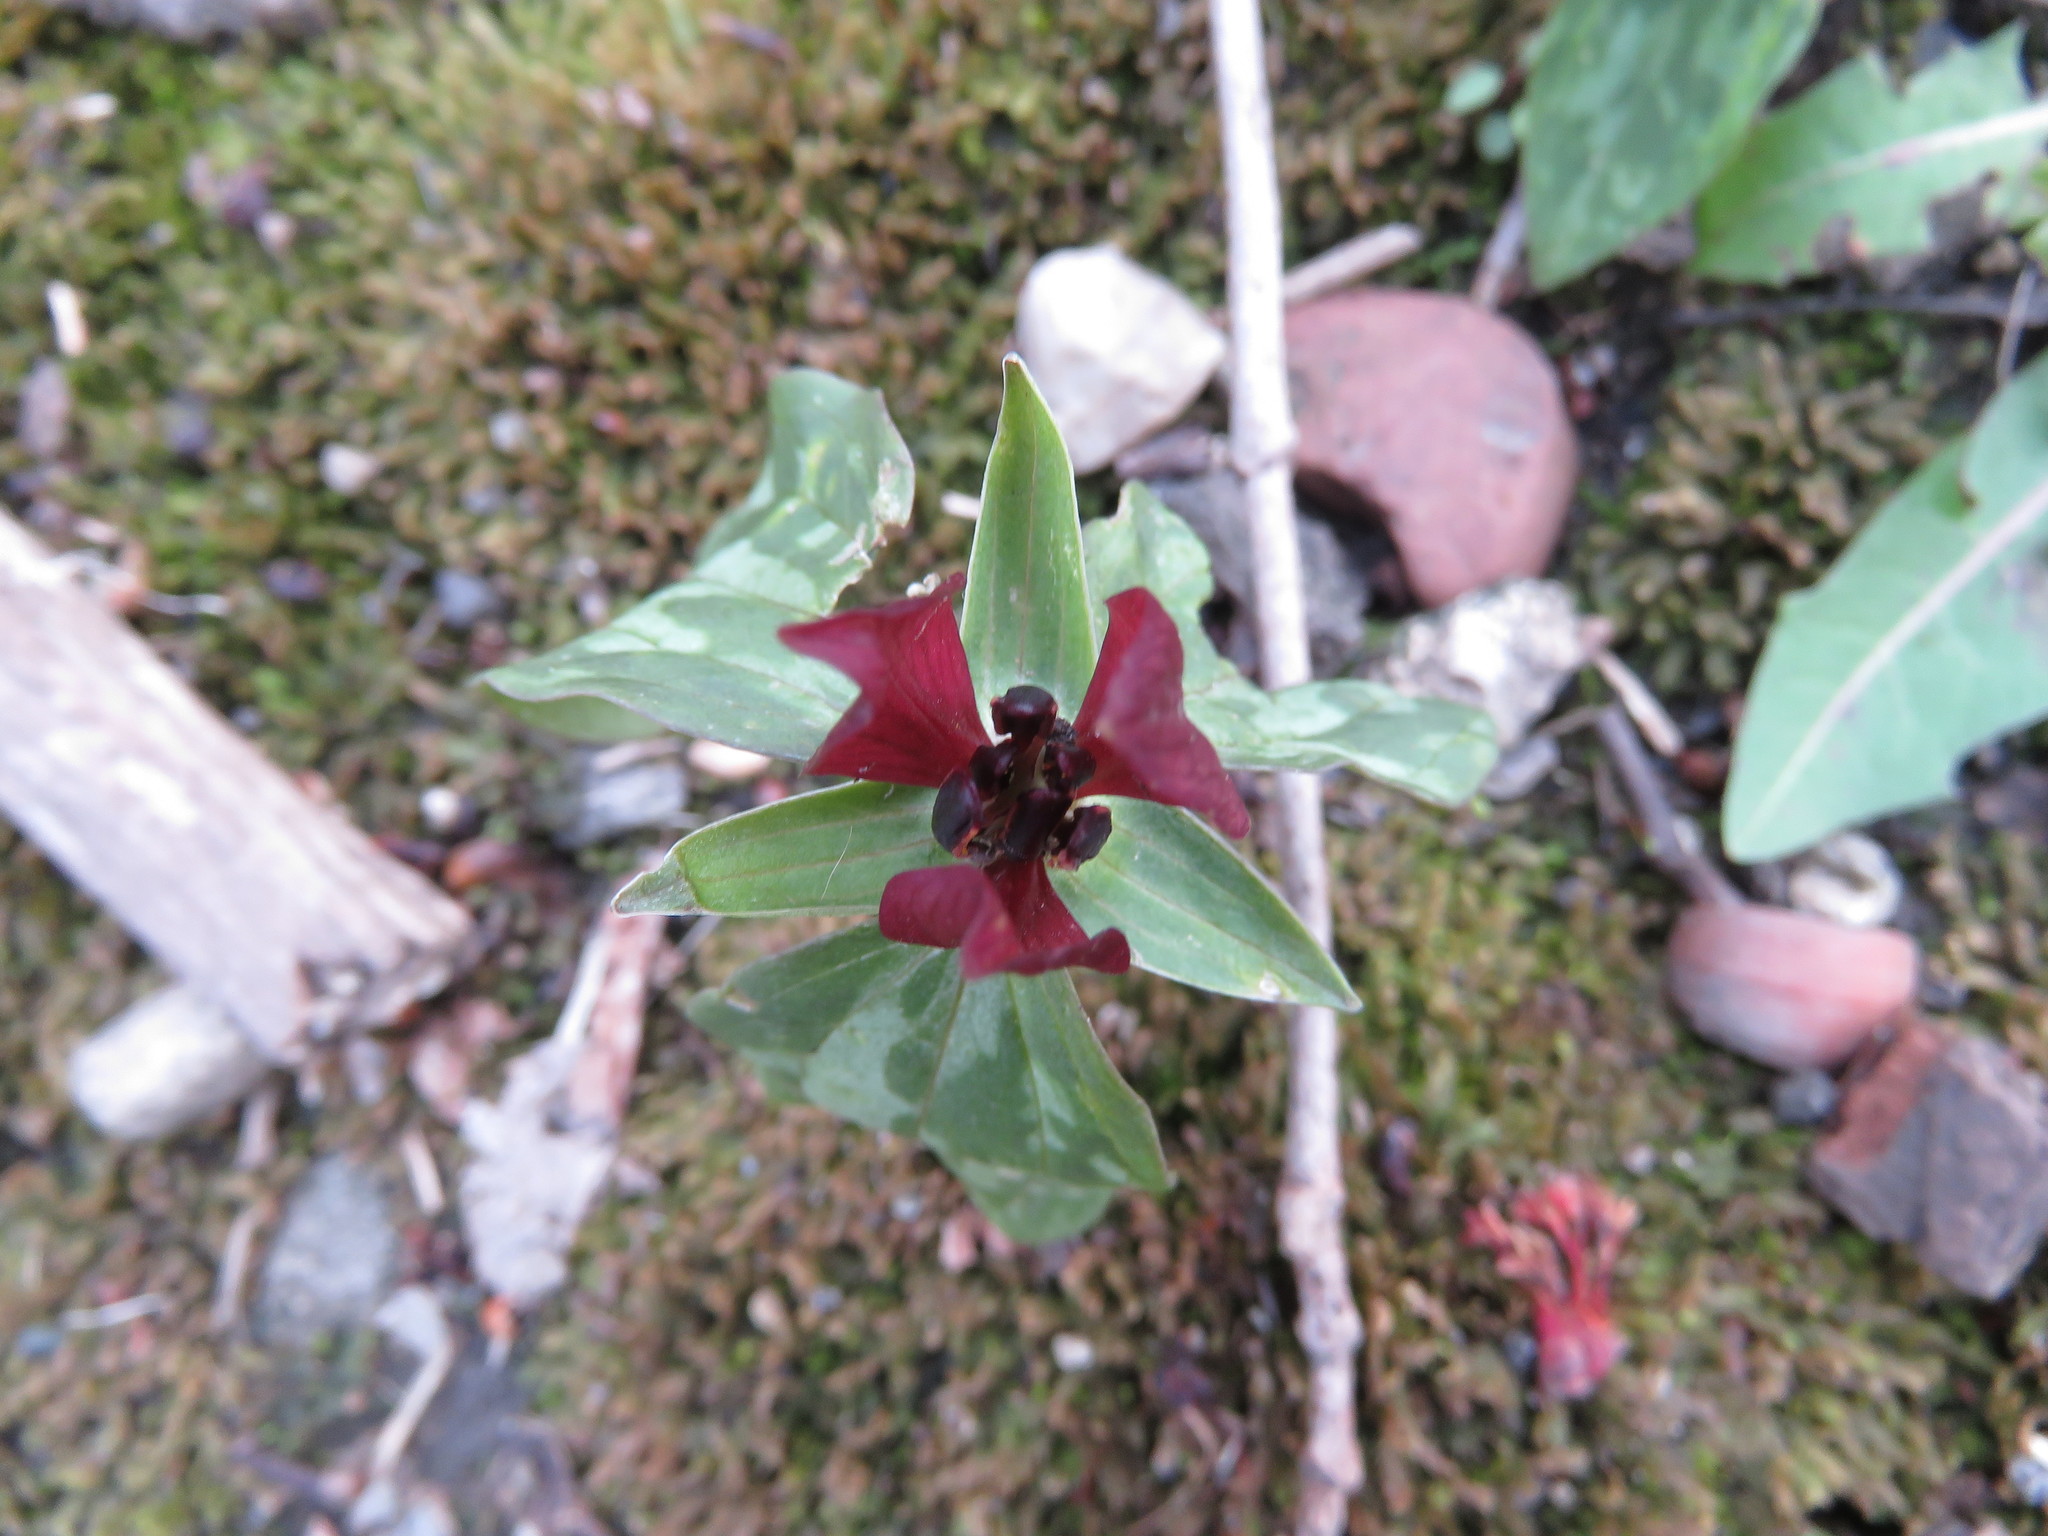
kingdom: Plantae
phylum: Tracheophyta
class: Liliopsida
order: Liliales
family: Melanthiaceae
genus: Trillium
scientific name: Trillium recurvatum
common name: Bloody butcher
